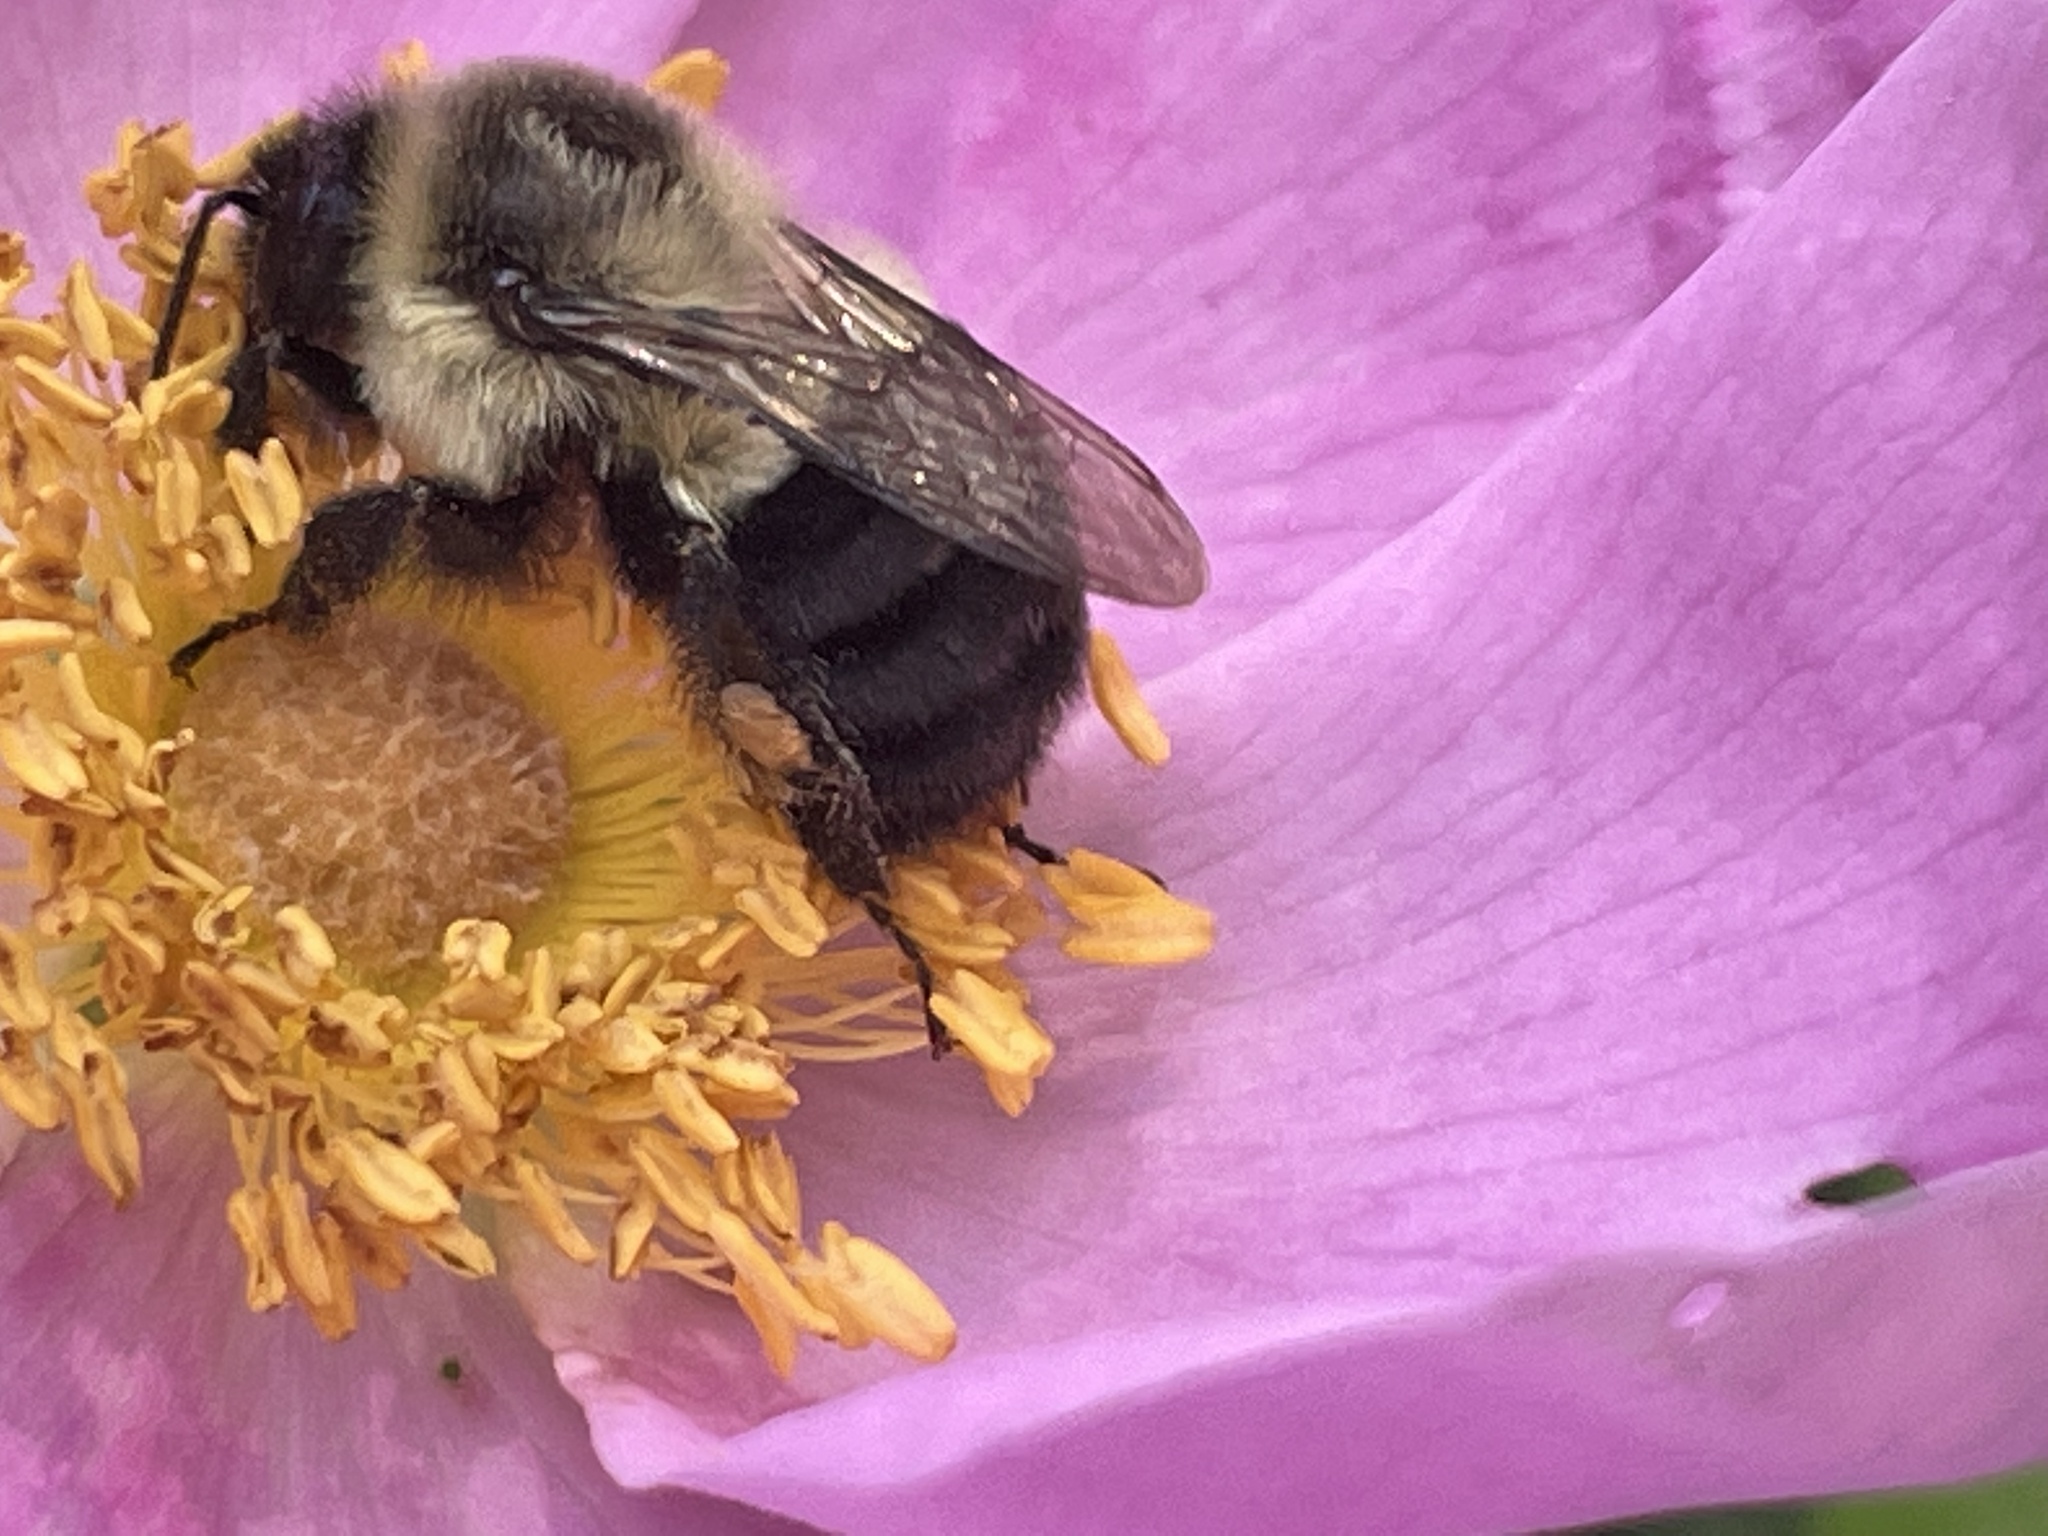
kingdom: Animalia
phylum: Arthropoda
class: Insecta
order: Hymenoptera
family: Apidae
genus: Bombus
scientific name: Bombus impatiens
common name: Common eastern bumble bee
